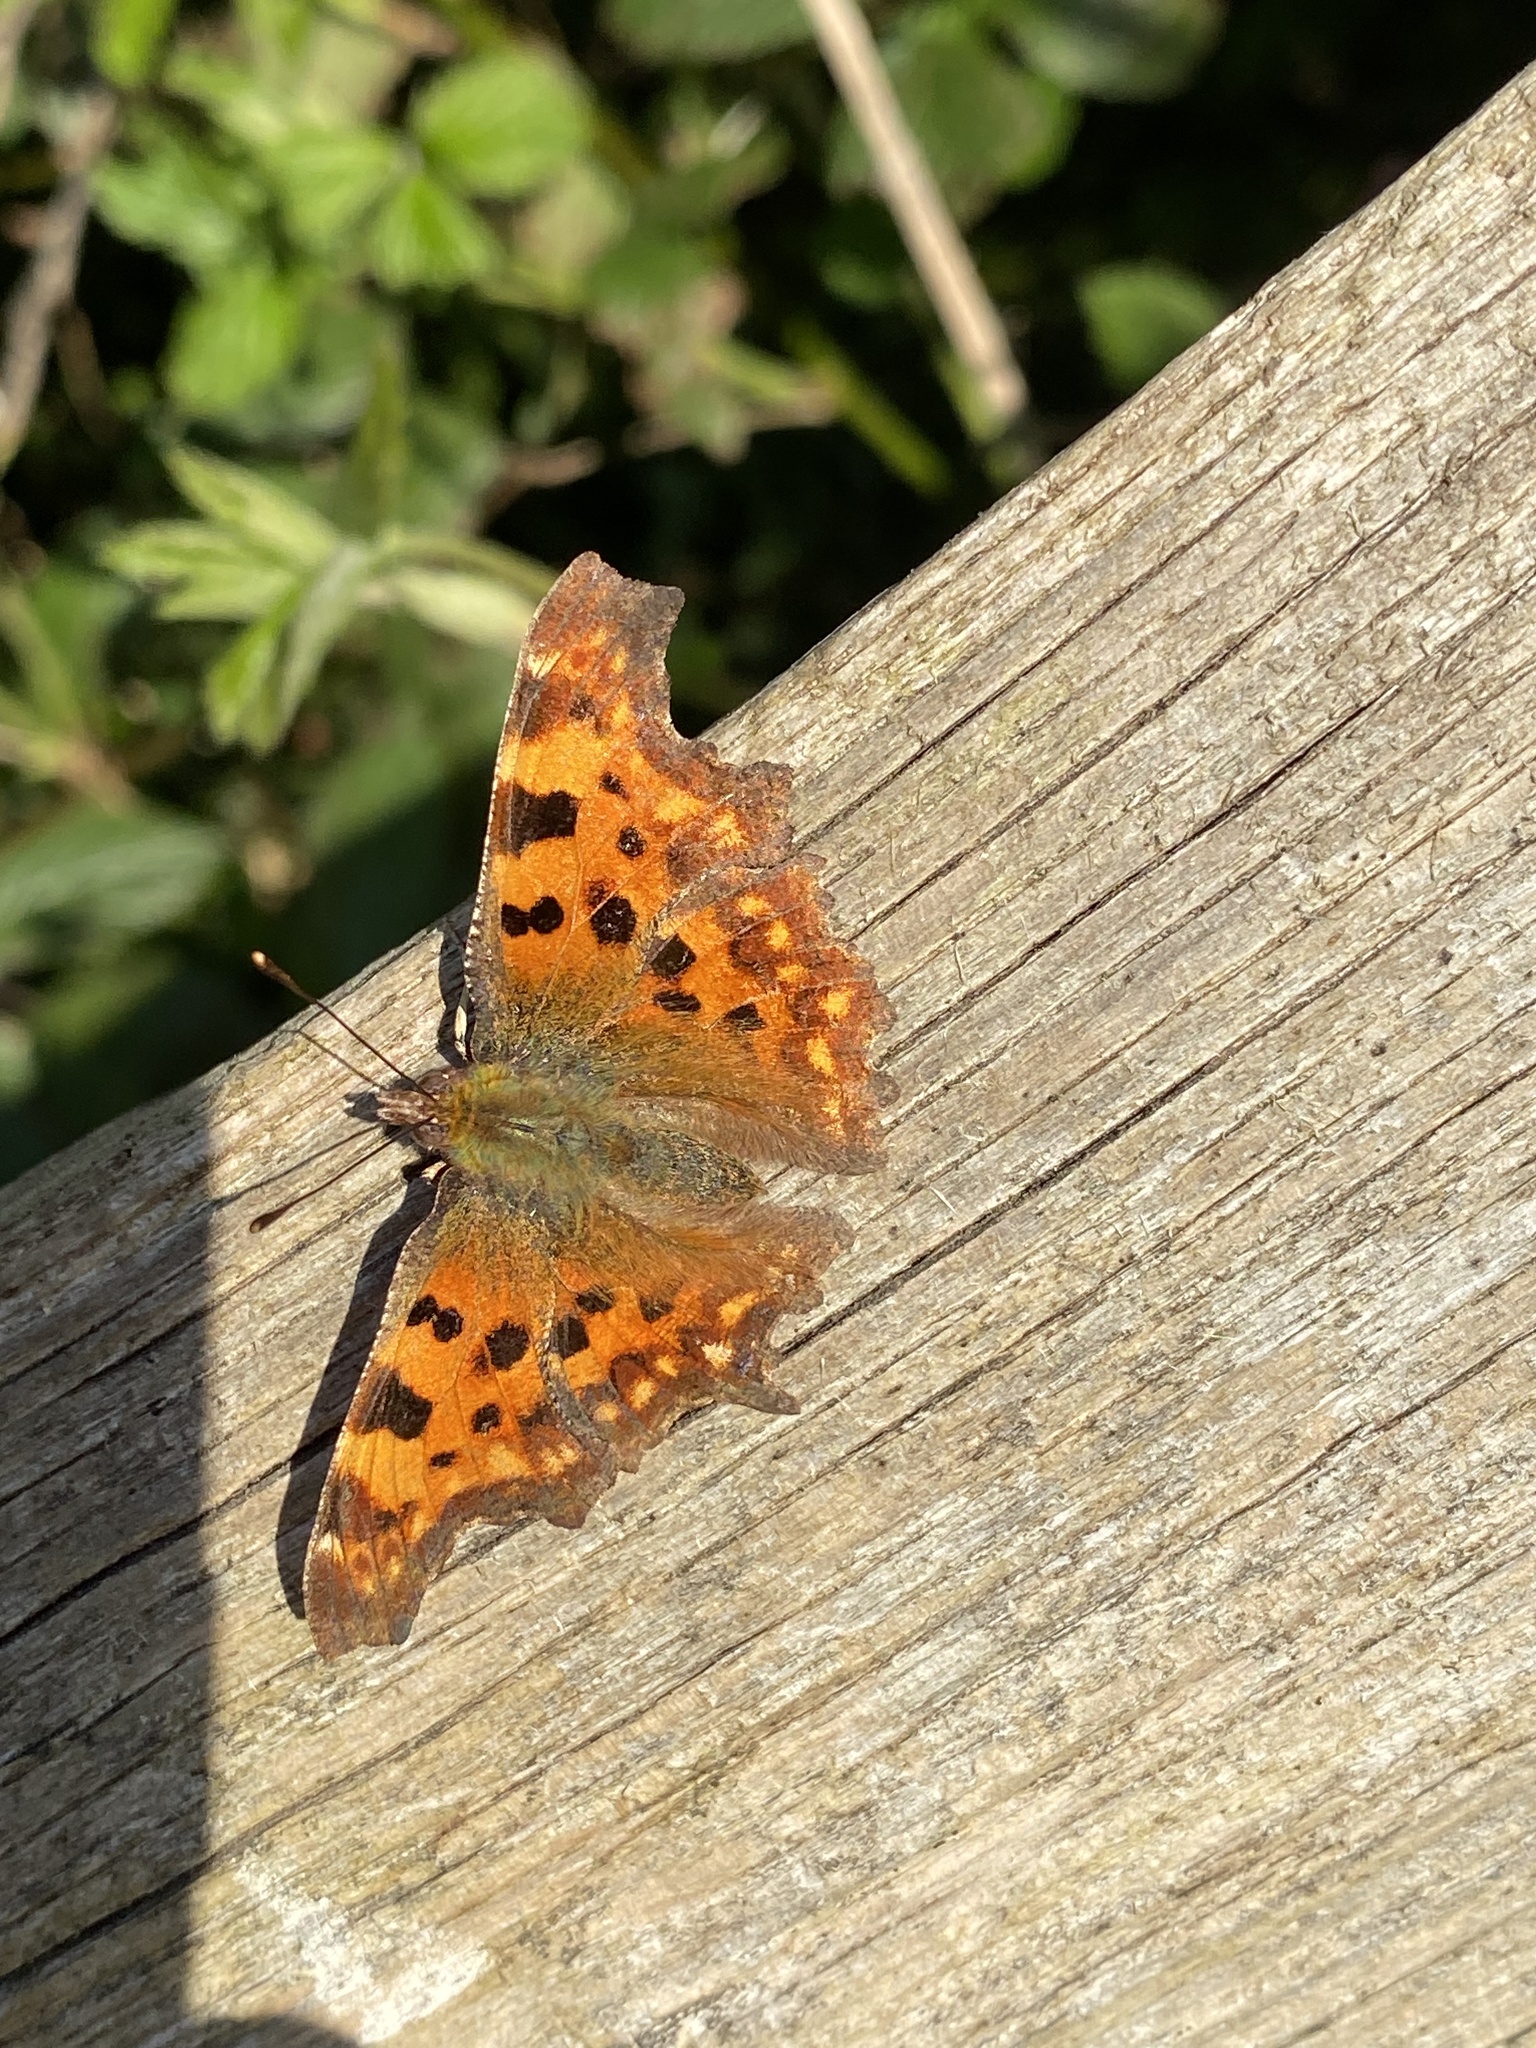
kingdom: Animalia
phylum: Arthropoda
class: Insecta
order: Lepidoptera
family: Nymphalidae
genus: Polygonia
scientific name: Polygonia c-album
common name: Comma
